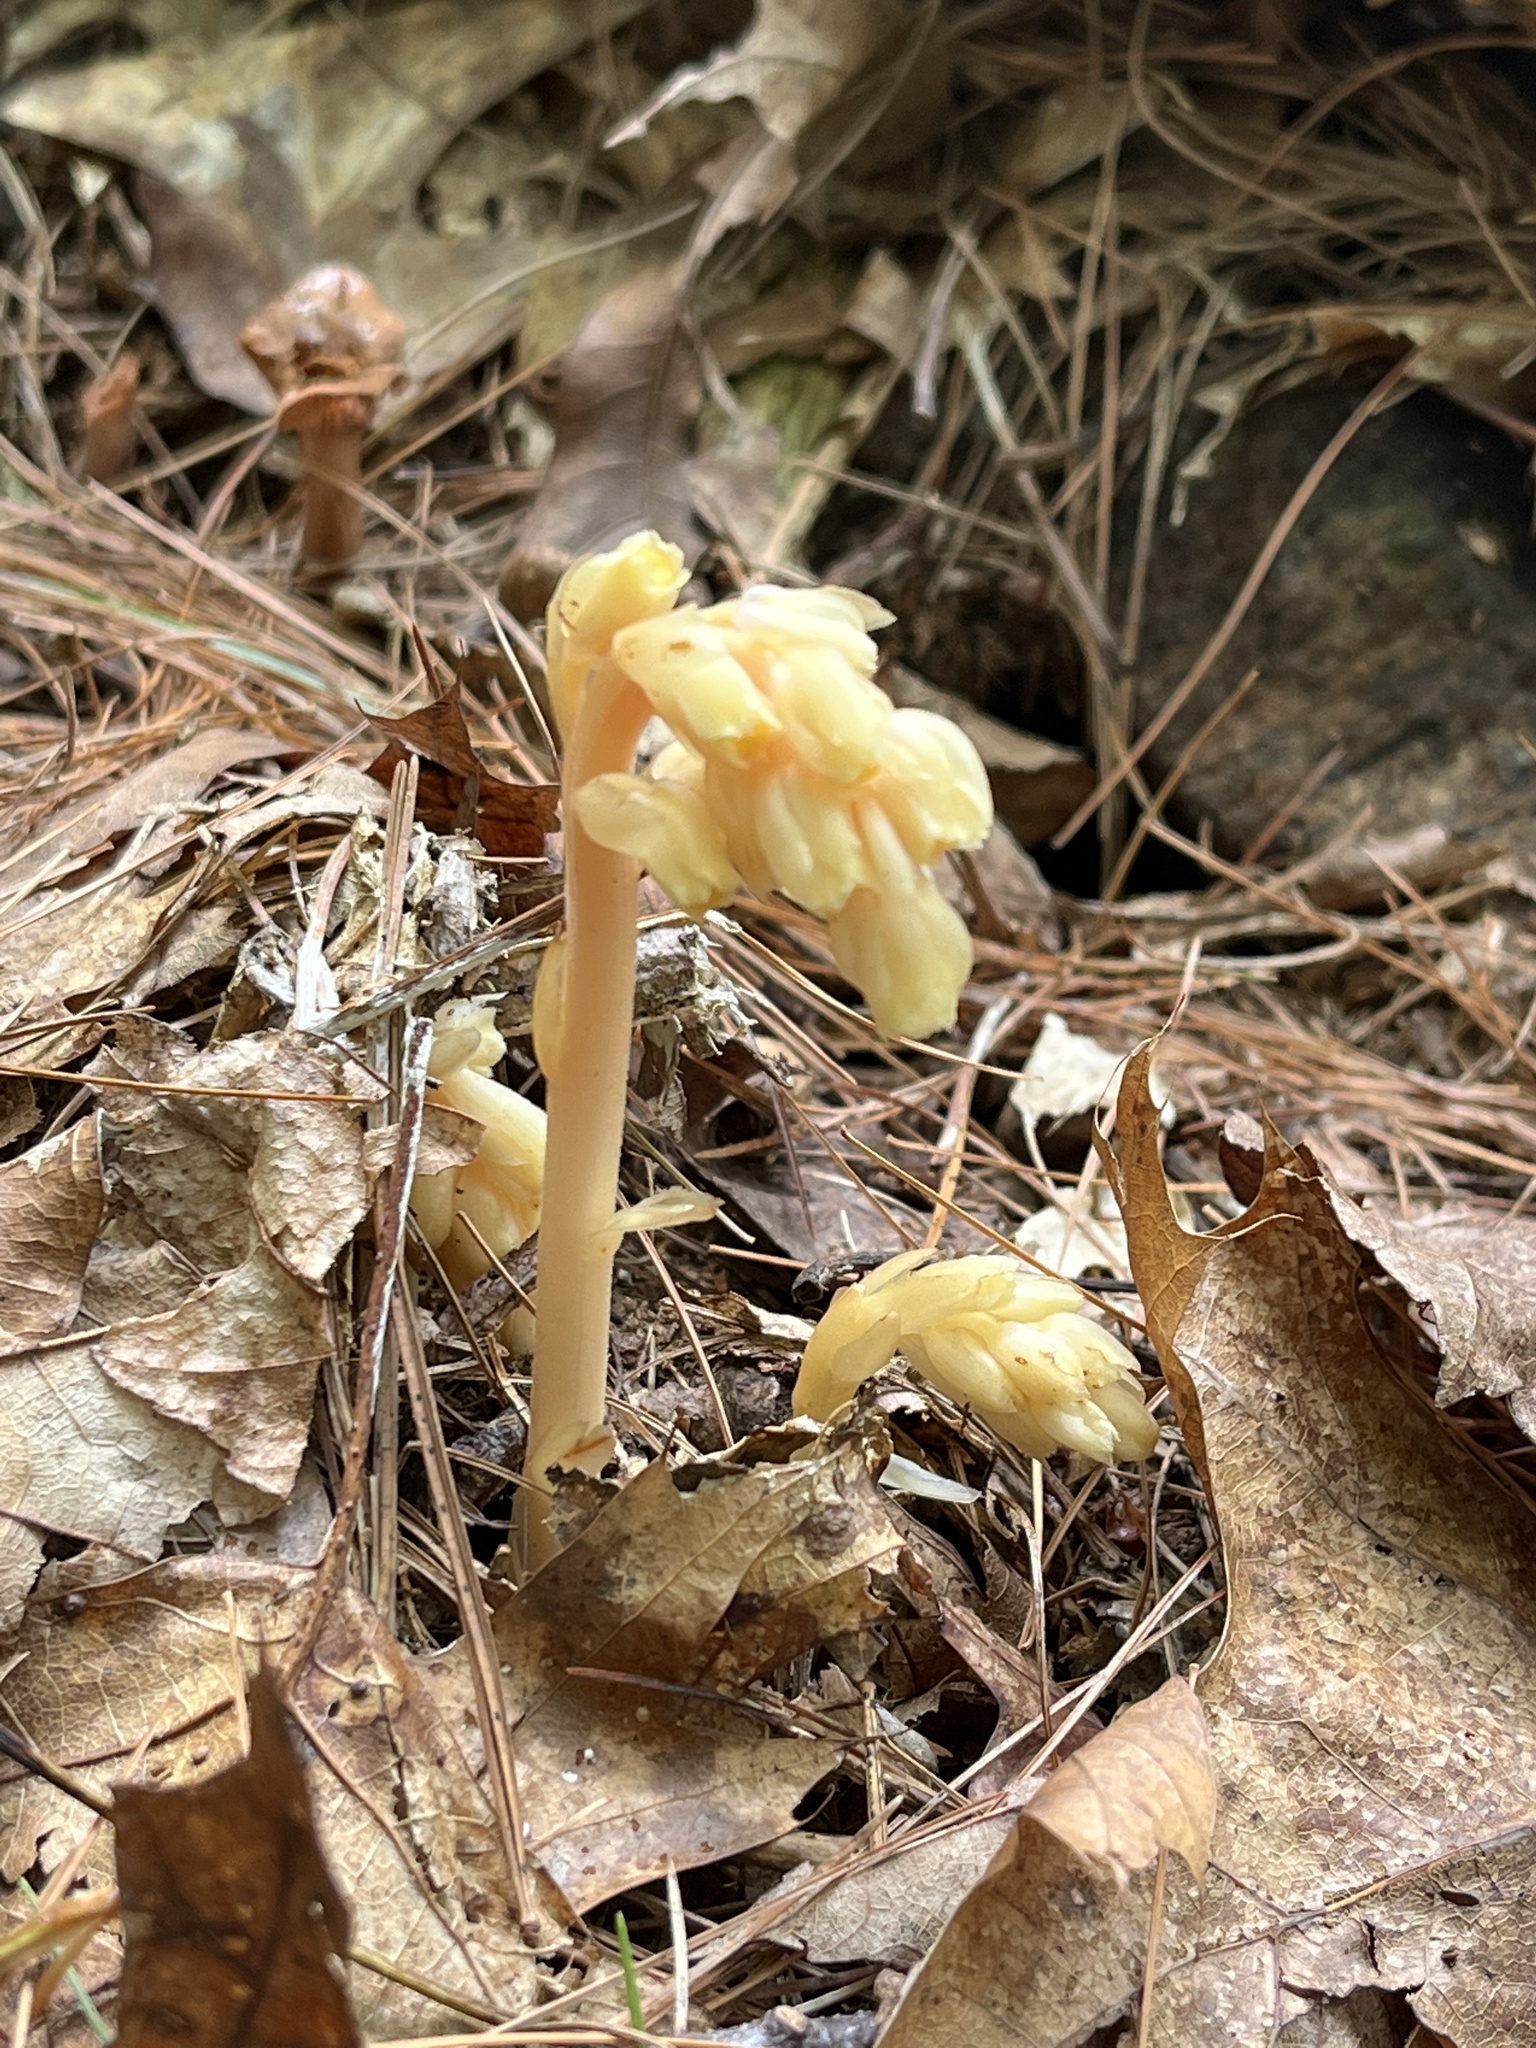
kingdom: Plantae
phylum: Tracheophyta
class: Magnoliopsida
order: Ericales
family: Ericaceae
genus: Hypopitys
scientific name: Hypopitys monotropa
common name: Yellow bird's-nest
